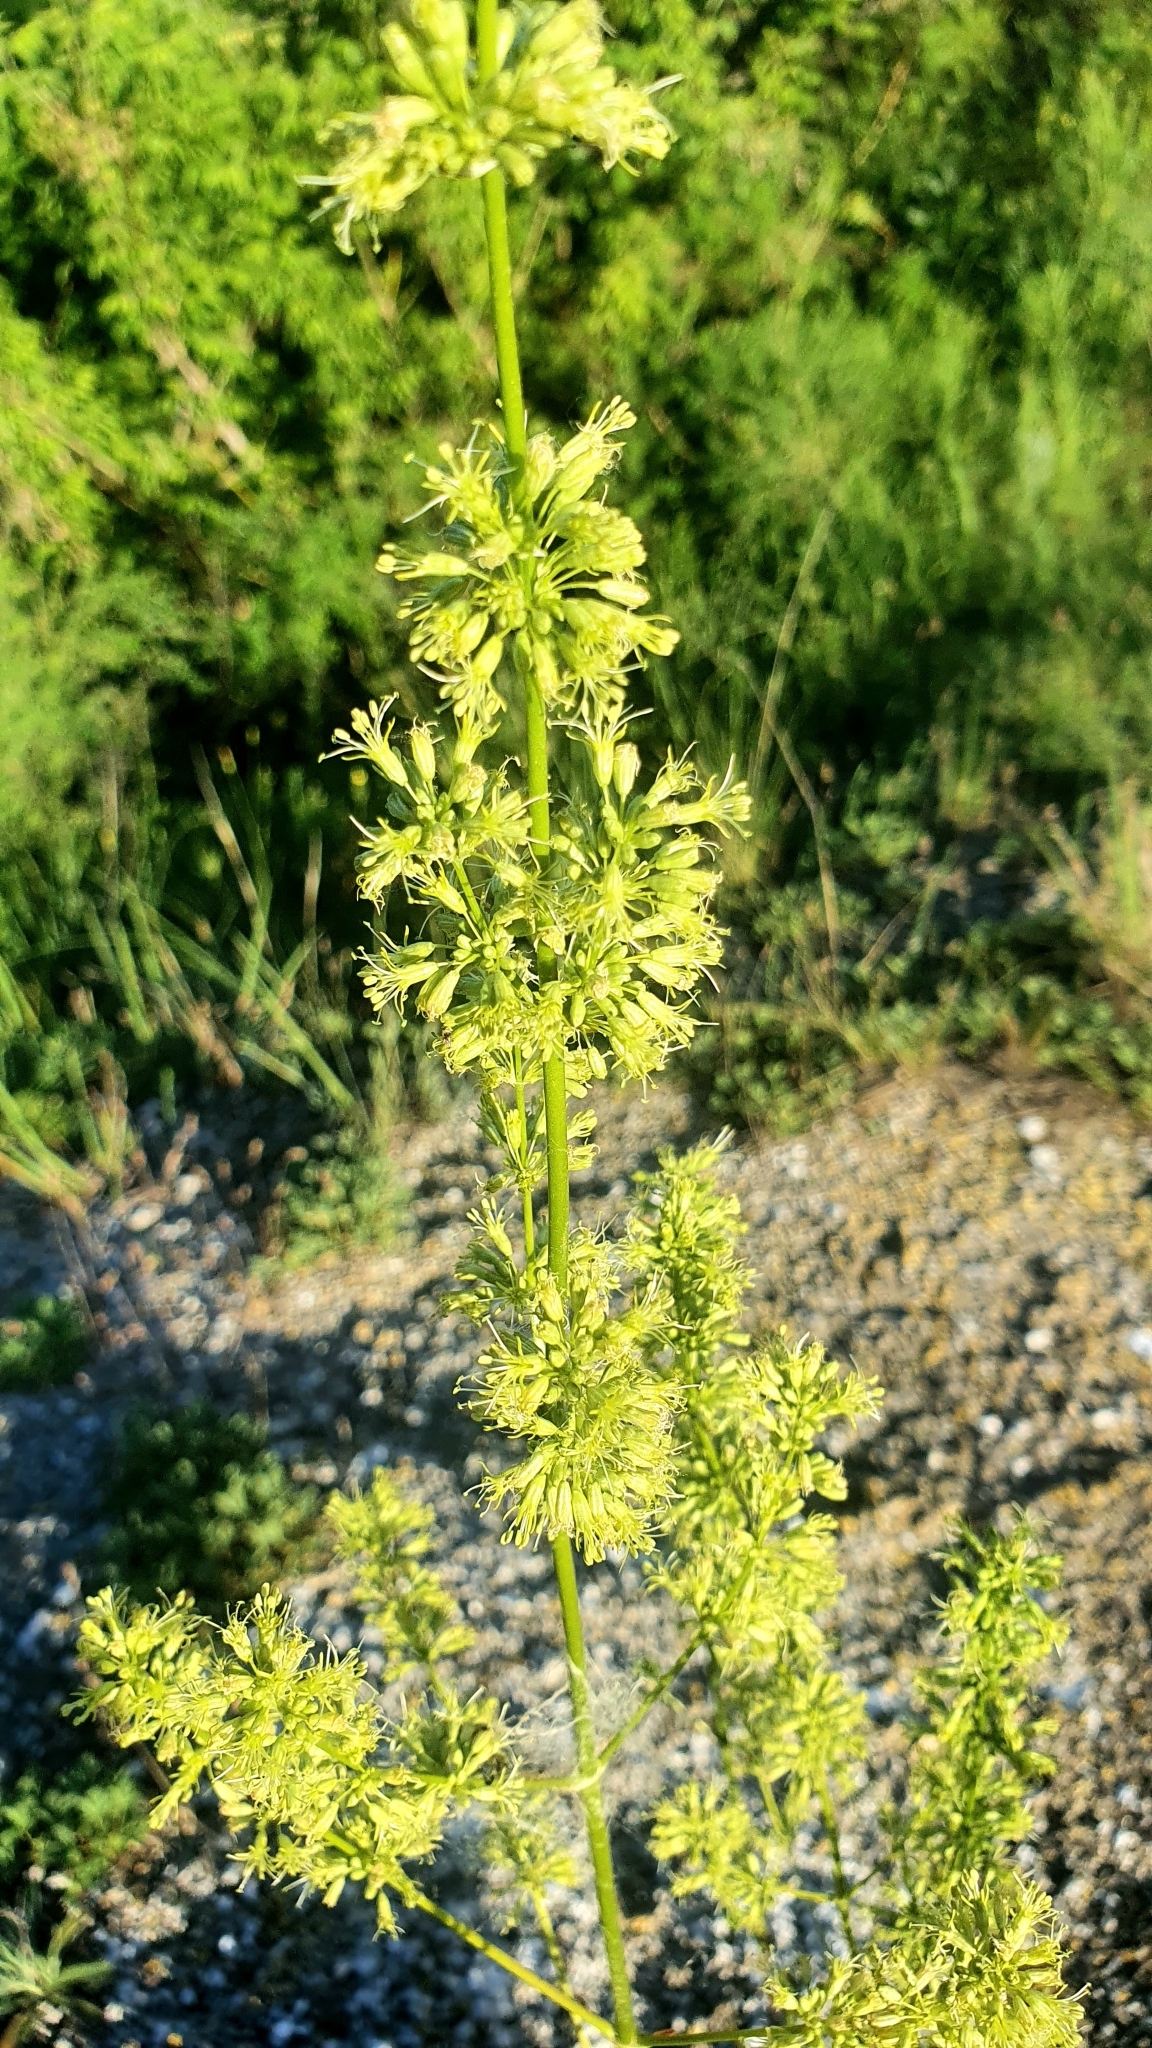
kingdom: Plantae
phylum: Tracheophyta
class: Magnoliopsida
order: Caryophyllales
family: Caryophyllaceae
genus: Silene
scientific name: Silene
